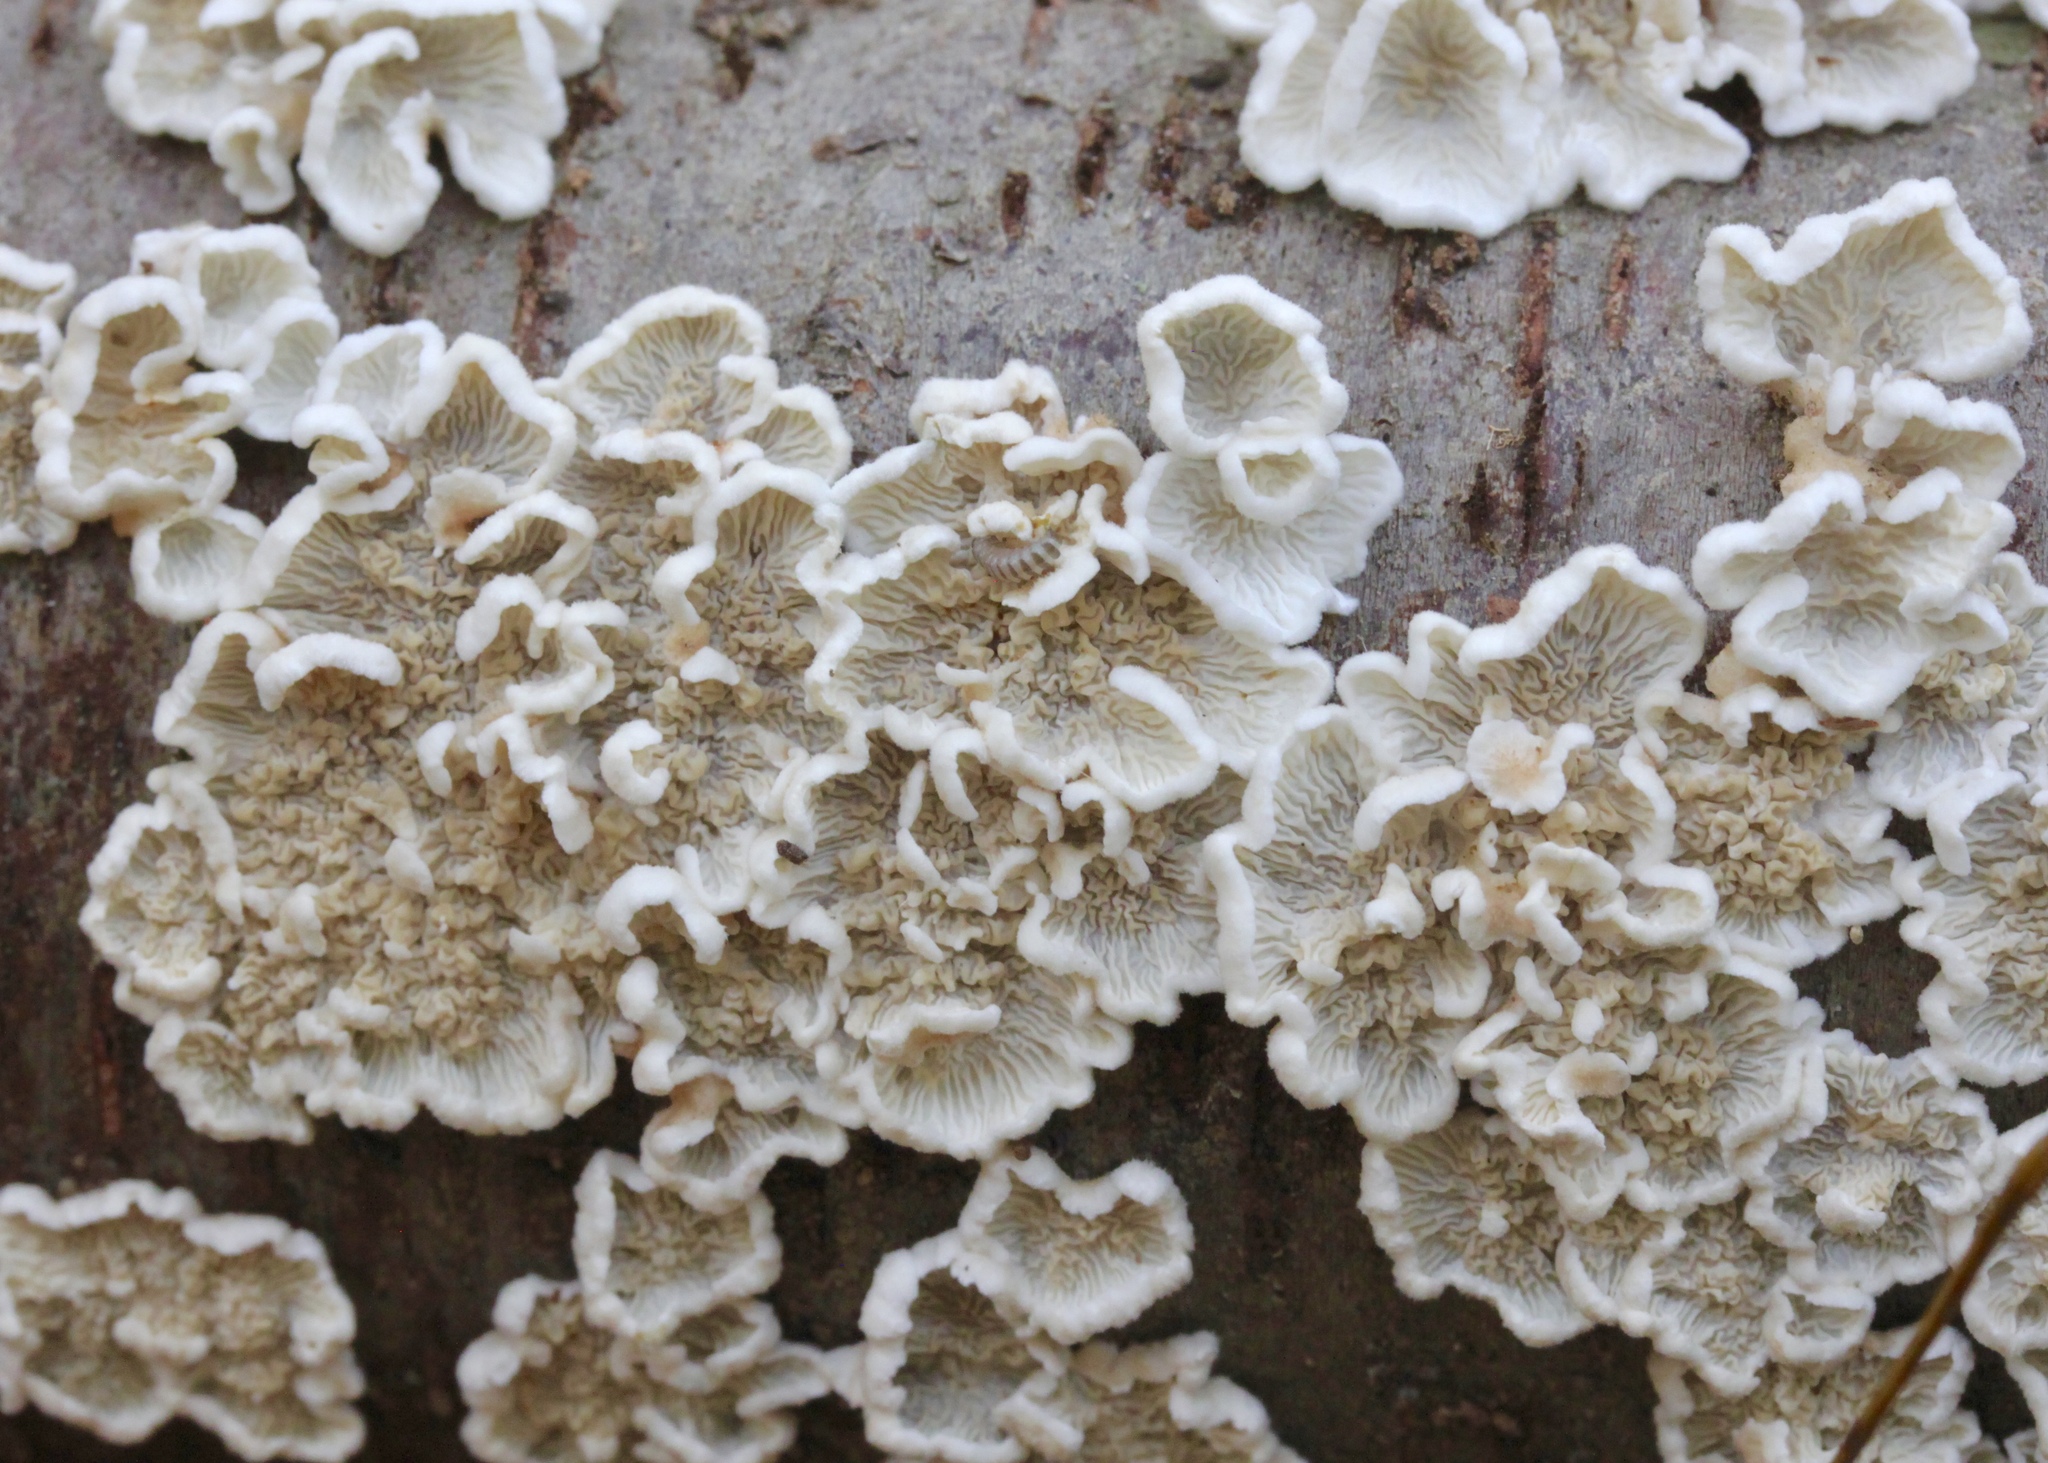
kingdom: Fungi
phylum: Basidiomycota
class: Agaricomycetes
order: Amylocorticiales
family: Amylocorticiaceae
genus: Plicaturopsis
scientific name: Plicaturopsis crispa
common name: Crimped gill
